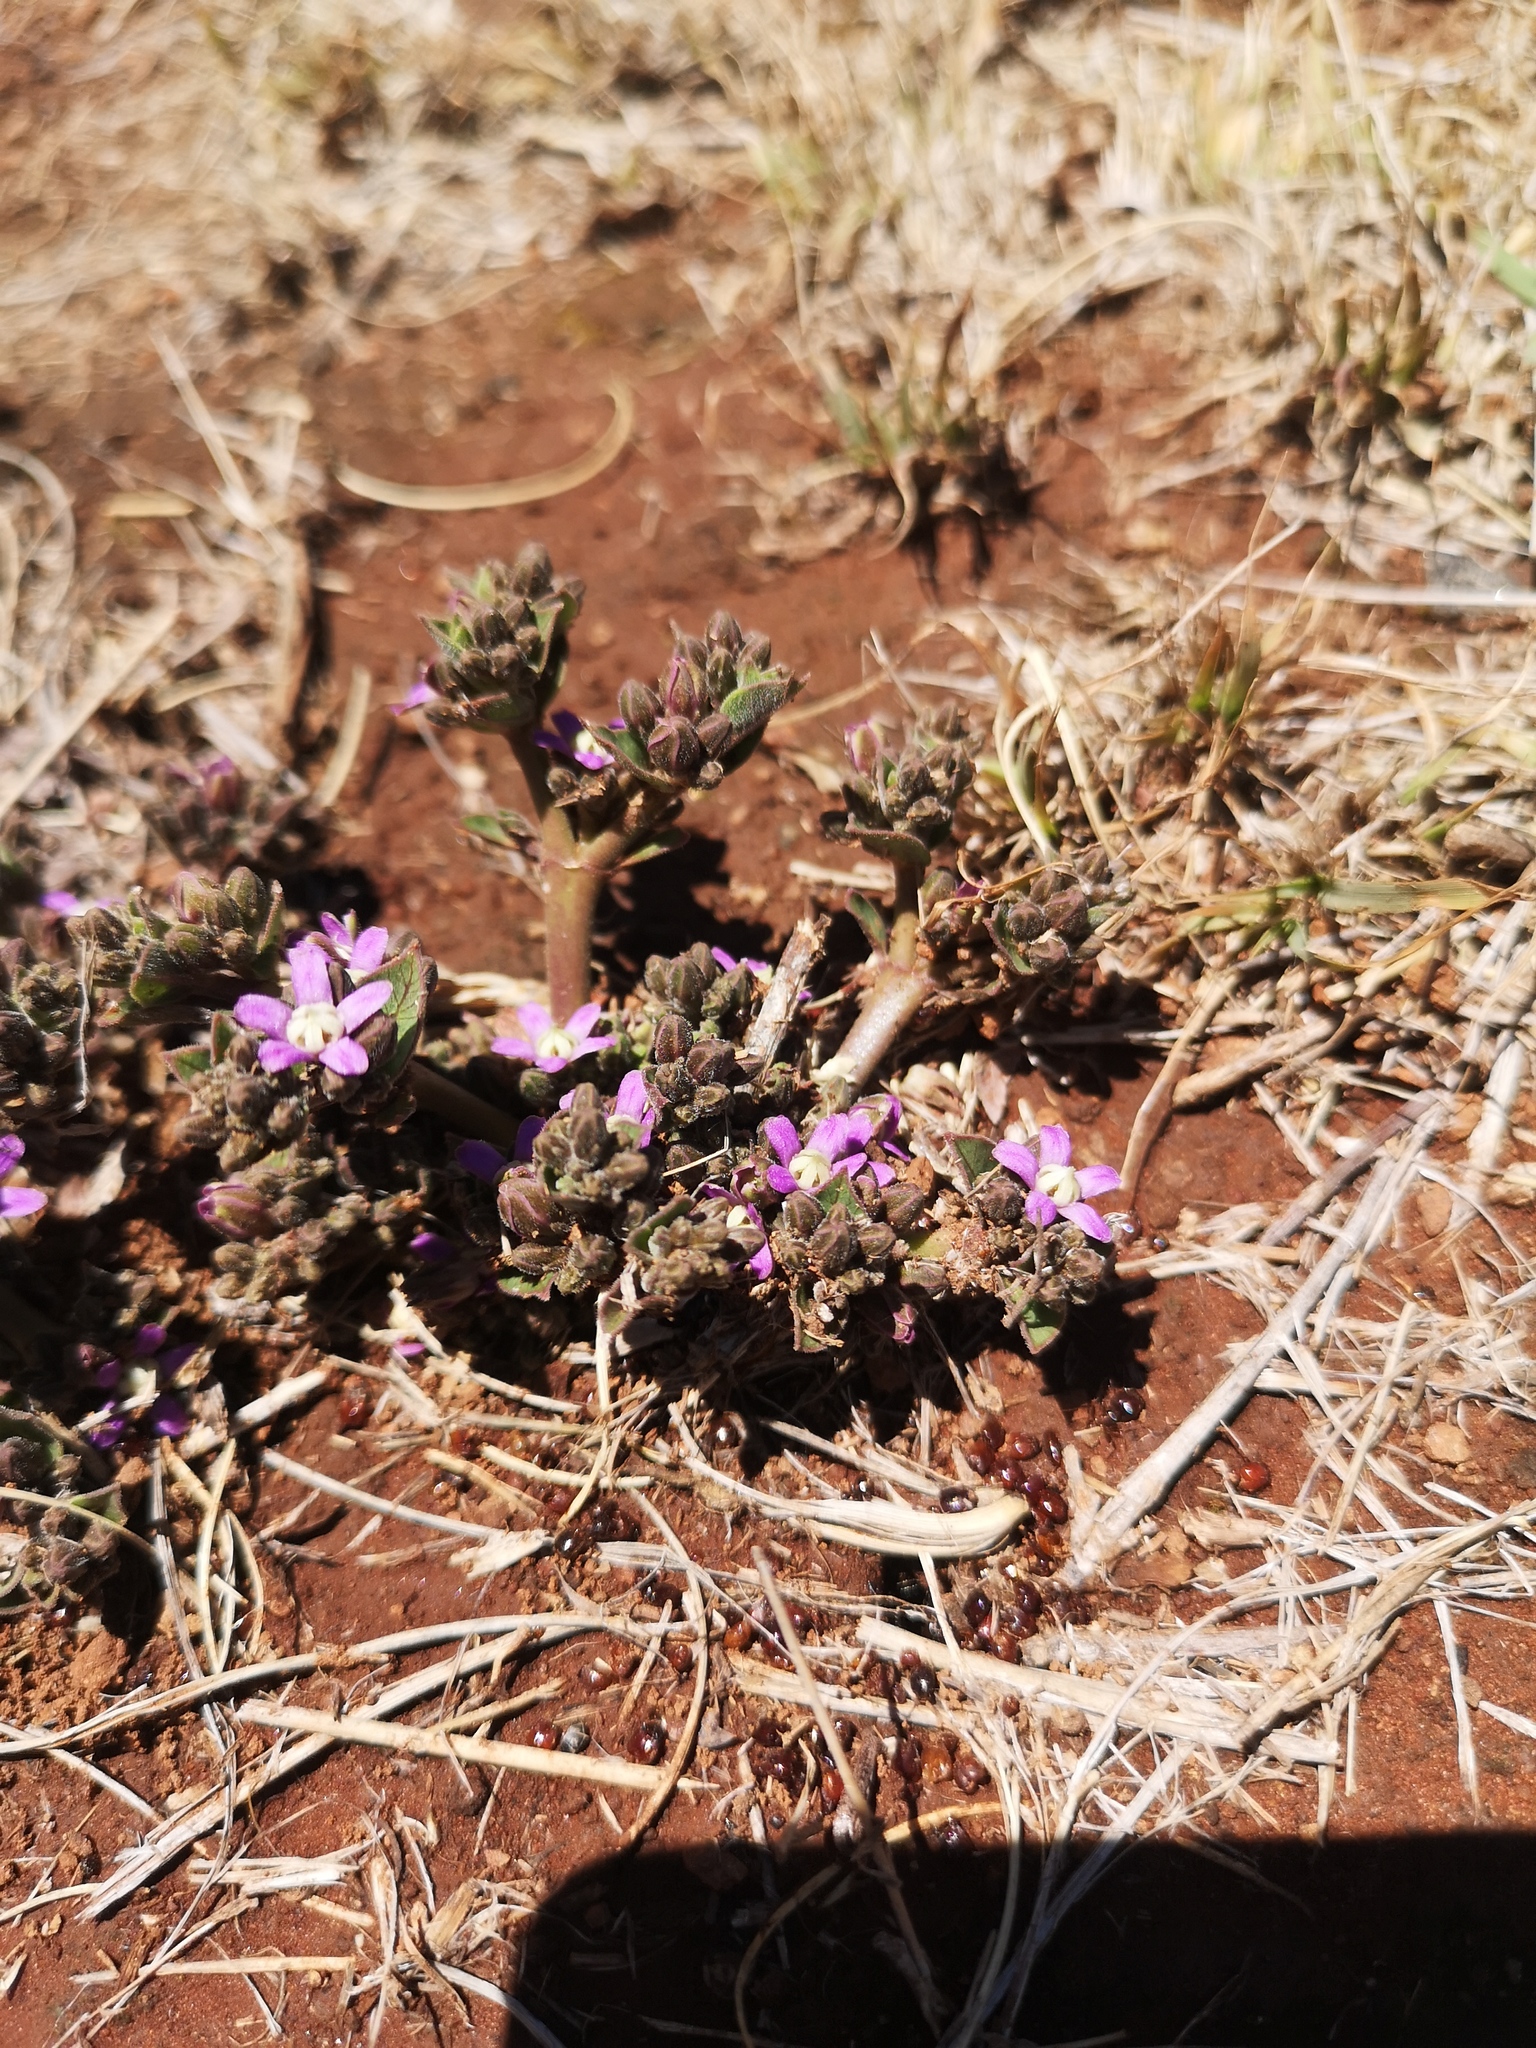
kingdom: Plantae
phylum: Tracheophyta
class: Magnoliopsida
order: Gentianales
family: Apocynaceae
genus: Raphionacme
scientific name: Raphionacme hirsuta
